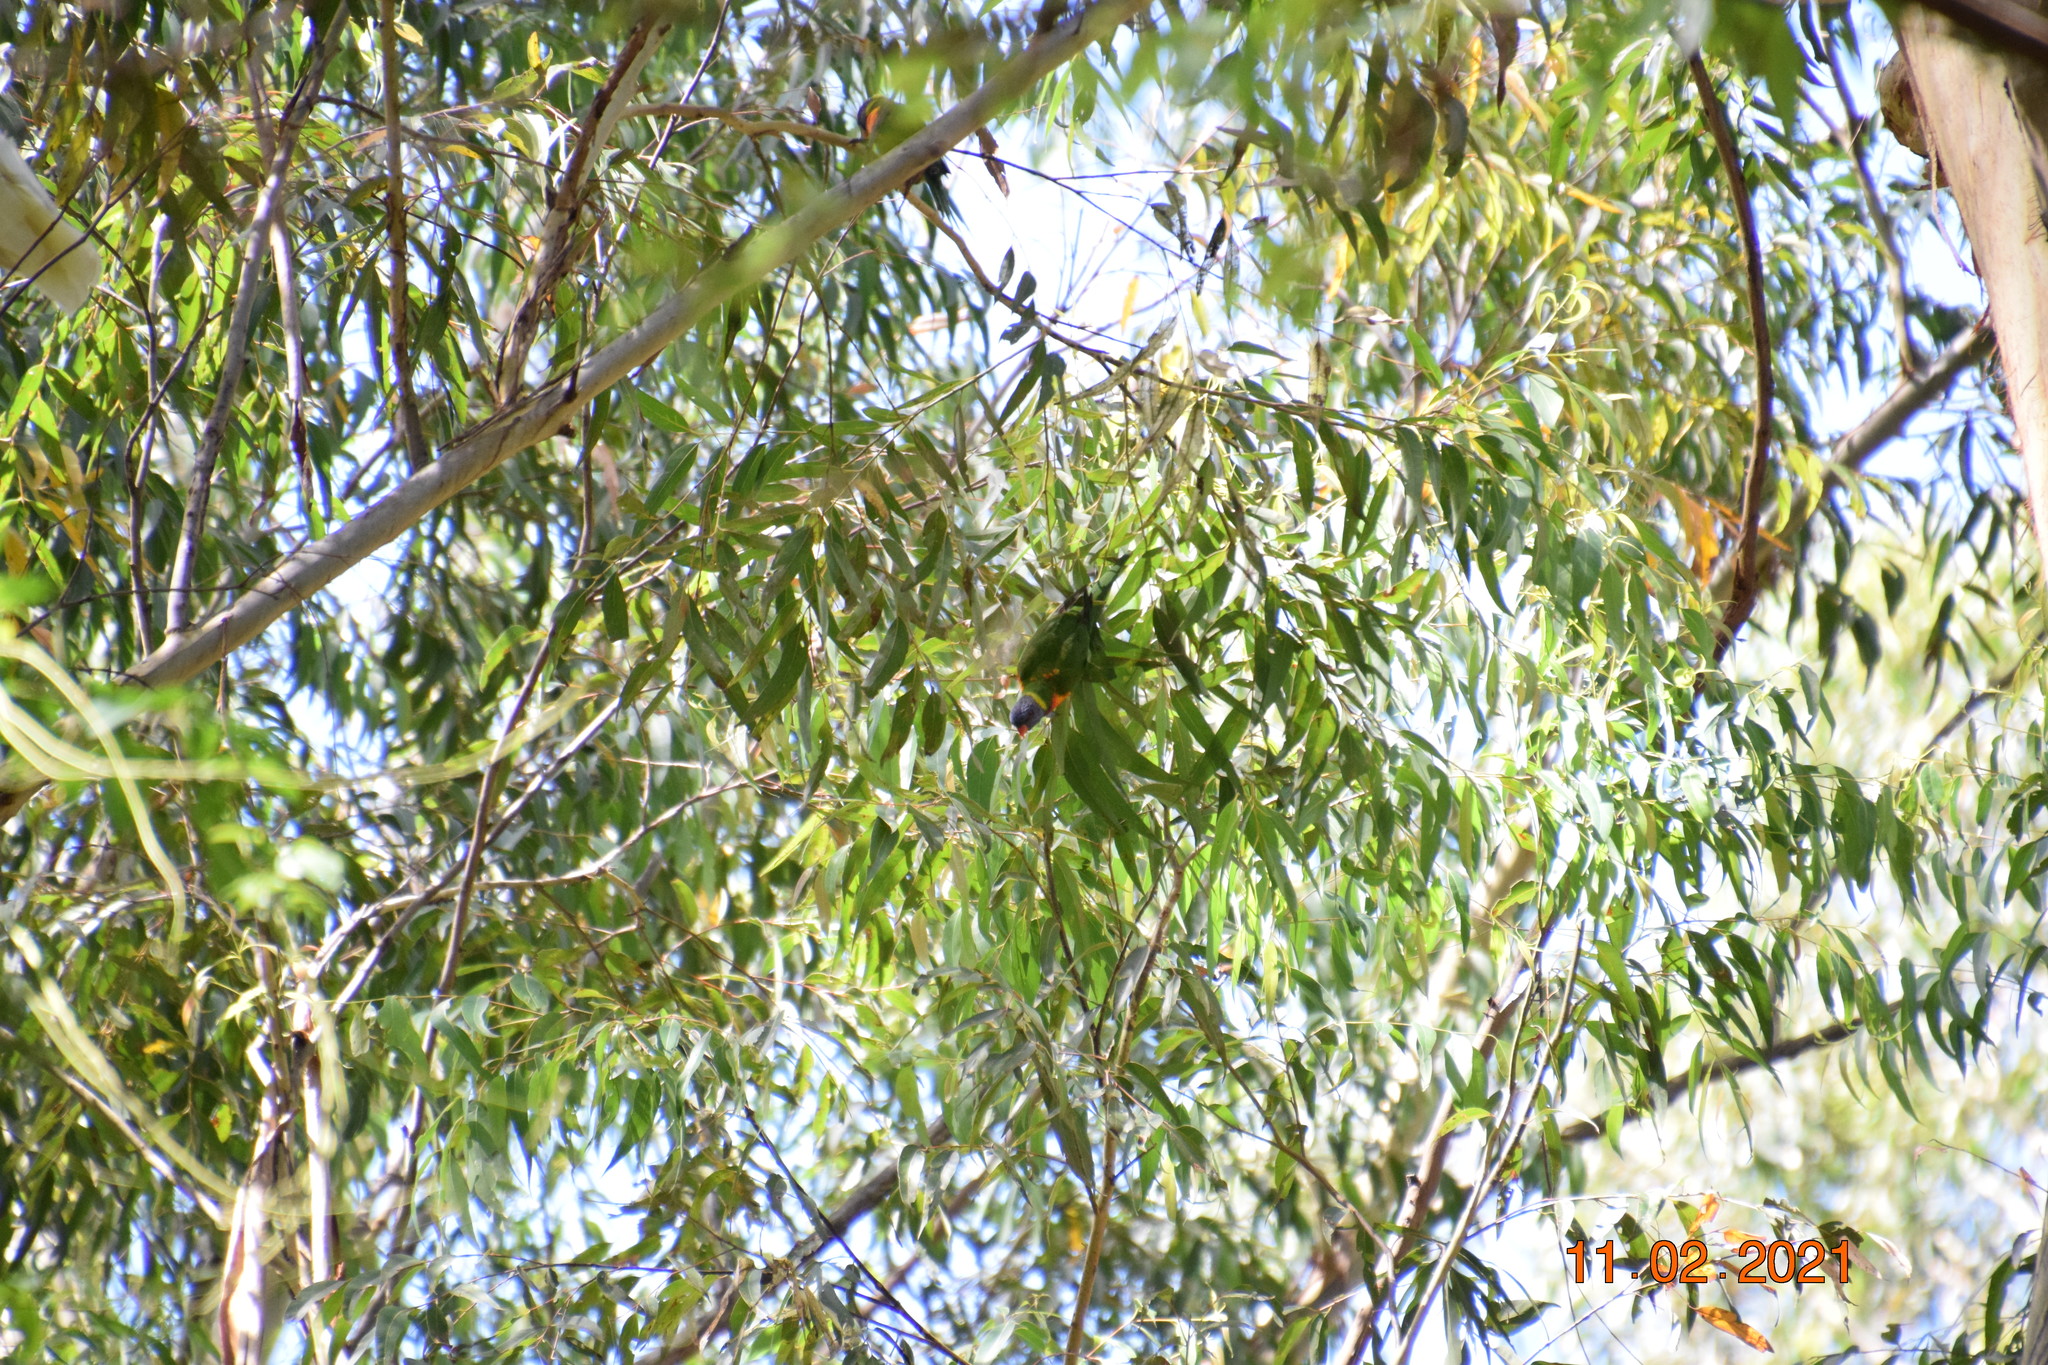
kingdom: Animalia
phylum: Chordata
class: Aves
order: Psittaciformes
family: Psittacidae
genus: Trichoglossus
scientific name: Trichoglossus haematodus
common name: Coconut lorikeet
